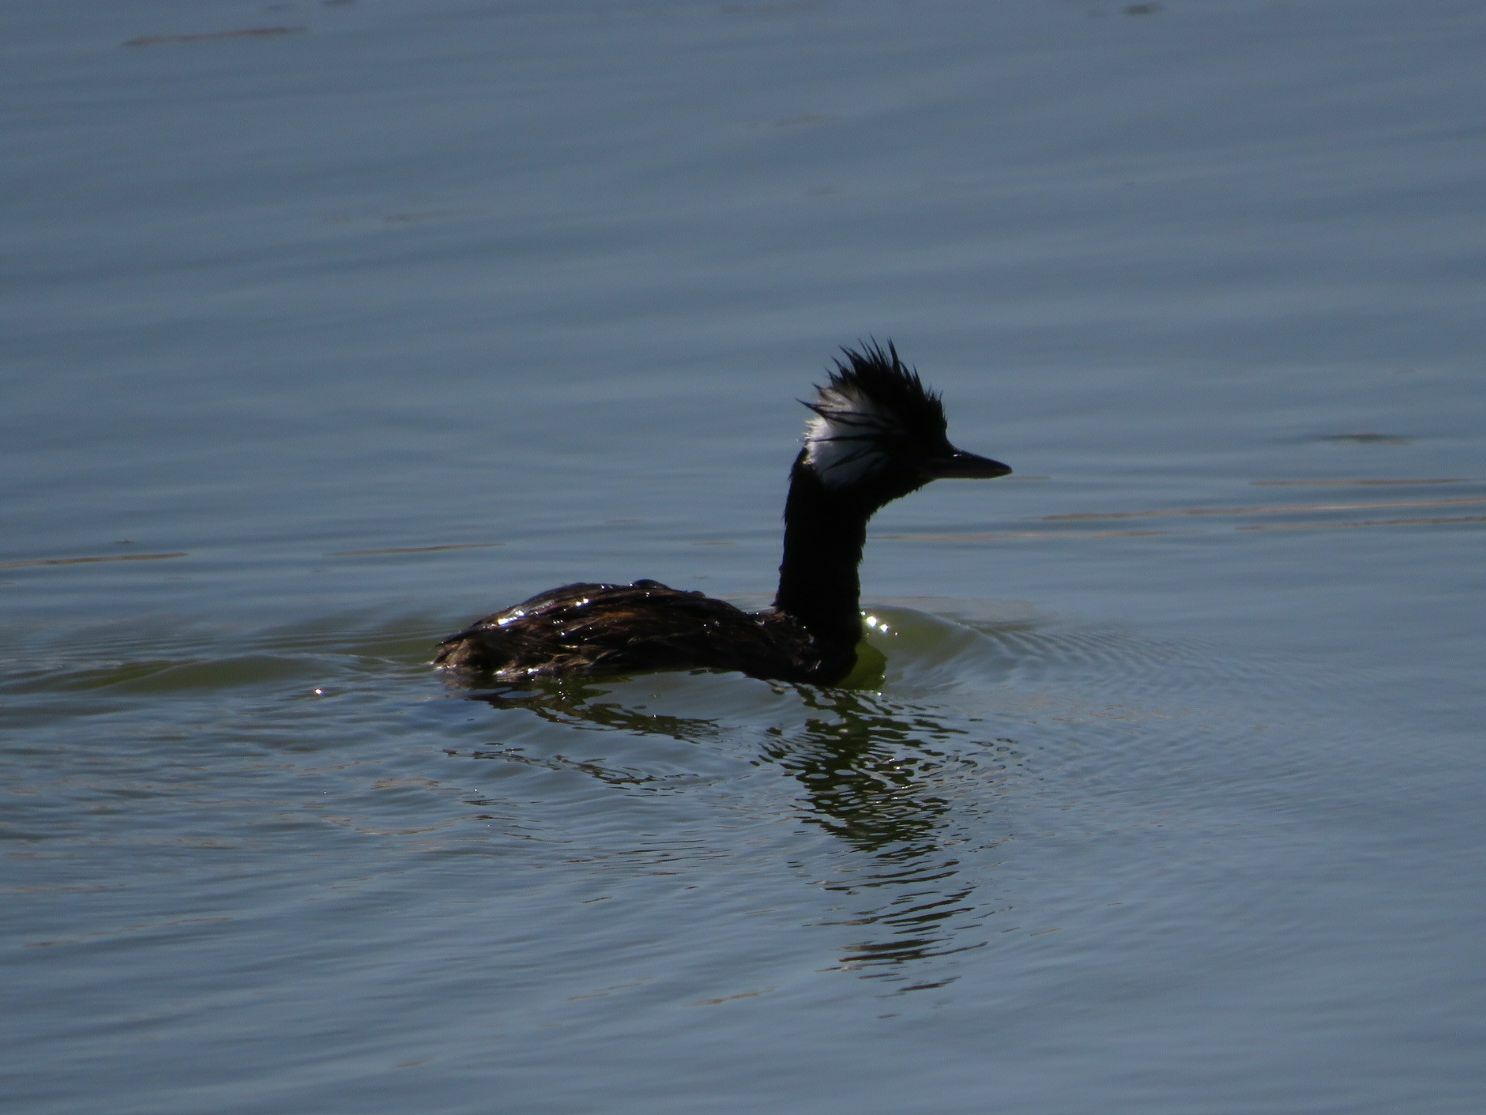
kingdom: Animalia
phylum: Chordata
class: Aves
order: Podicipediformes
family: Podicipedidae
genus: Rollandia
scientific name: Rollandia rolland
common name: White-tufted grebe
